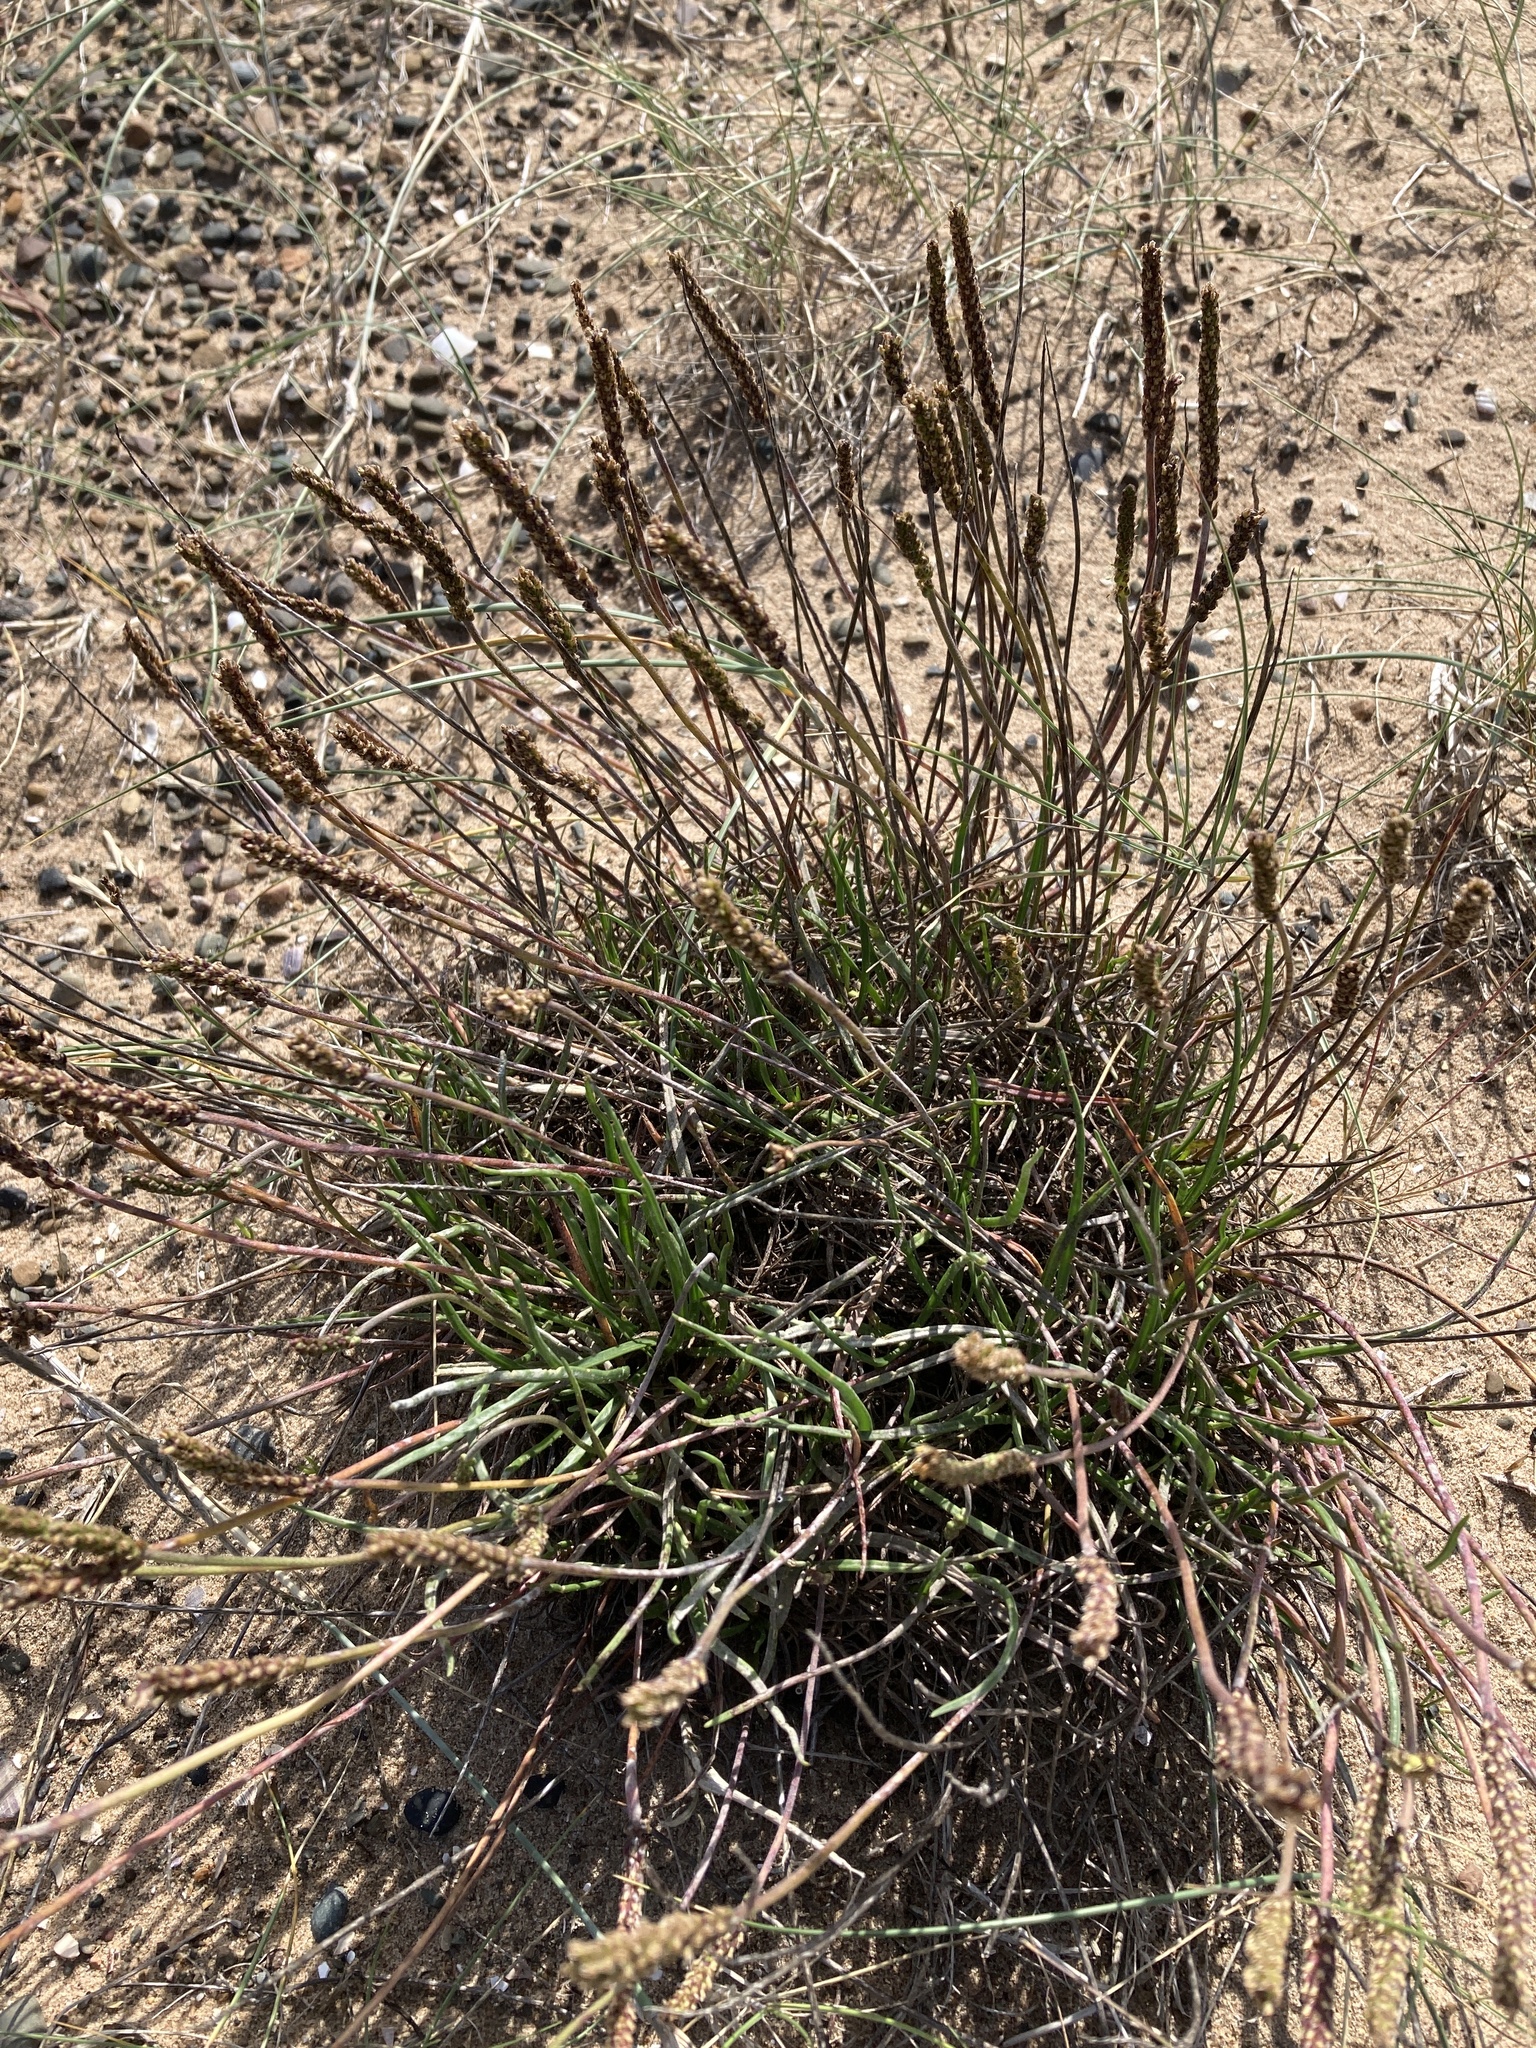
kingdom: Plantae
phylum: Tracheophyta
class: Magnoliopsida
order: Lamiales
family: Plantaginaceae
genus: Plantago
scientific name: Plantago maritima
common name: Sea plantain
